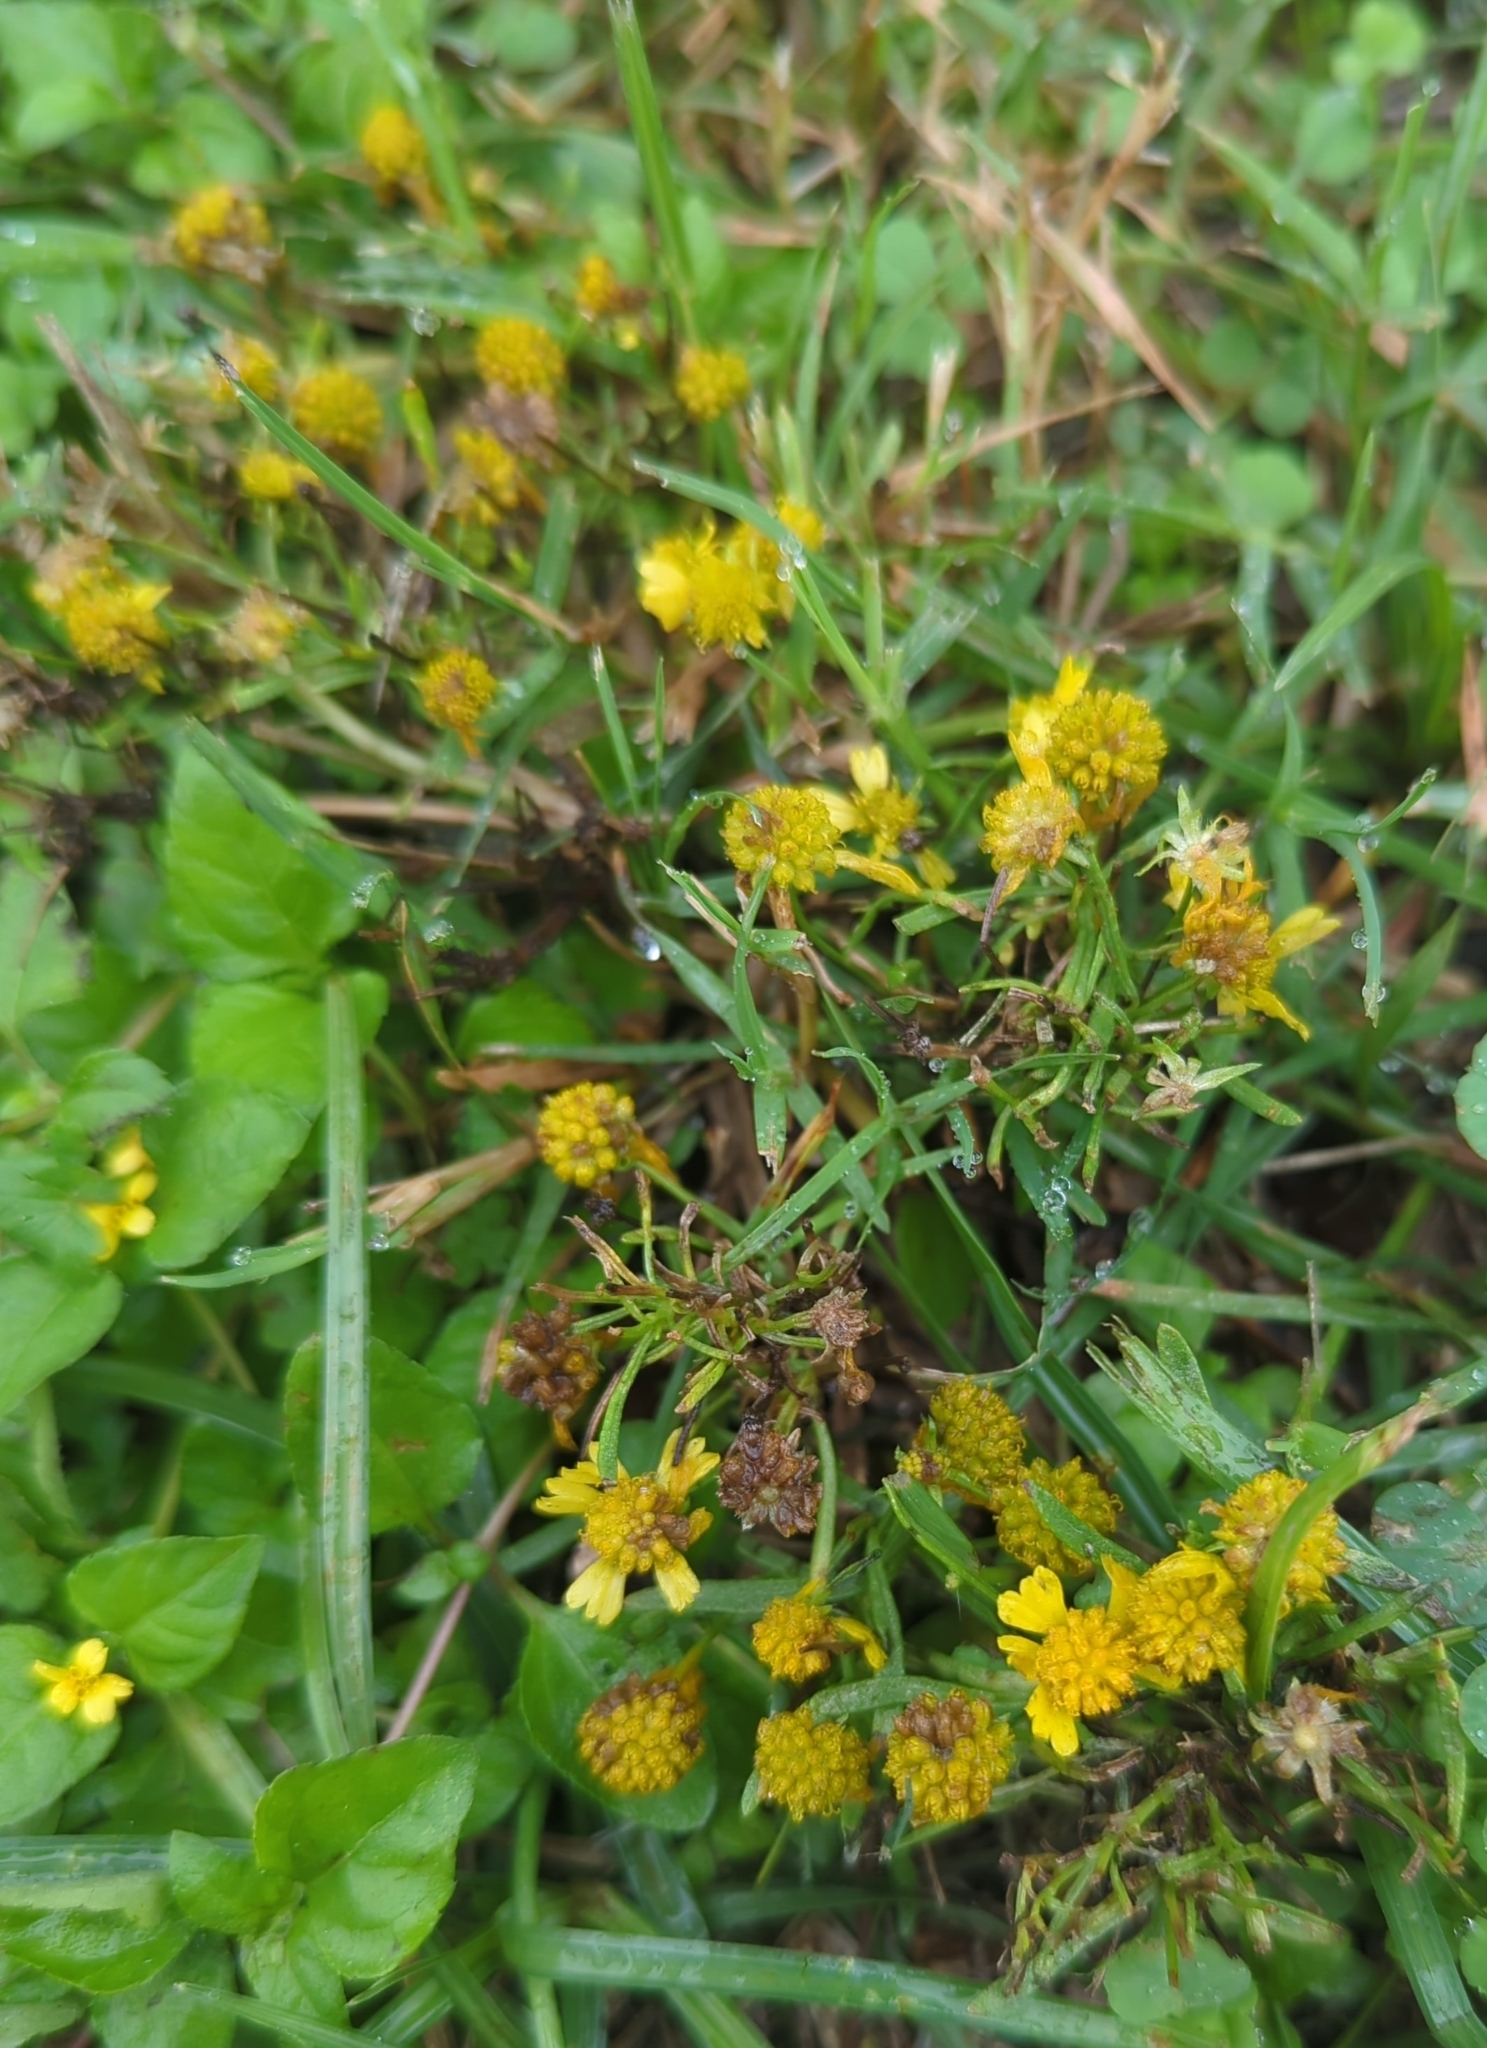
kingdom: Plantae
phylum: Tracheophyta
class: Magnoliopsida
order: Asterales
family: Asteraceae
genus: Helenium
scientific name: Helenium amarum
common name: Bitter sneezeweed
